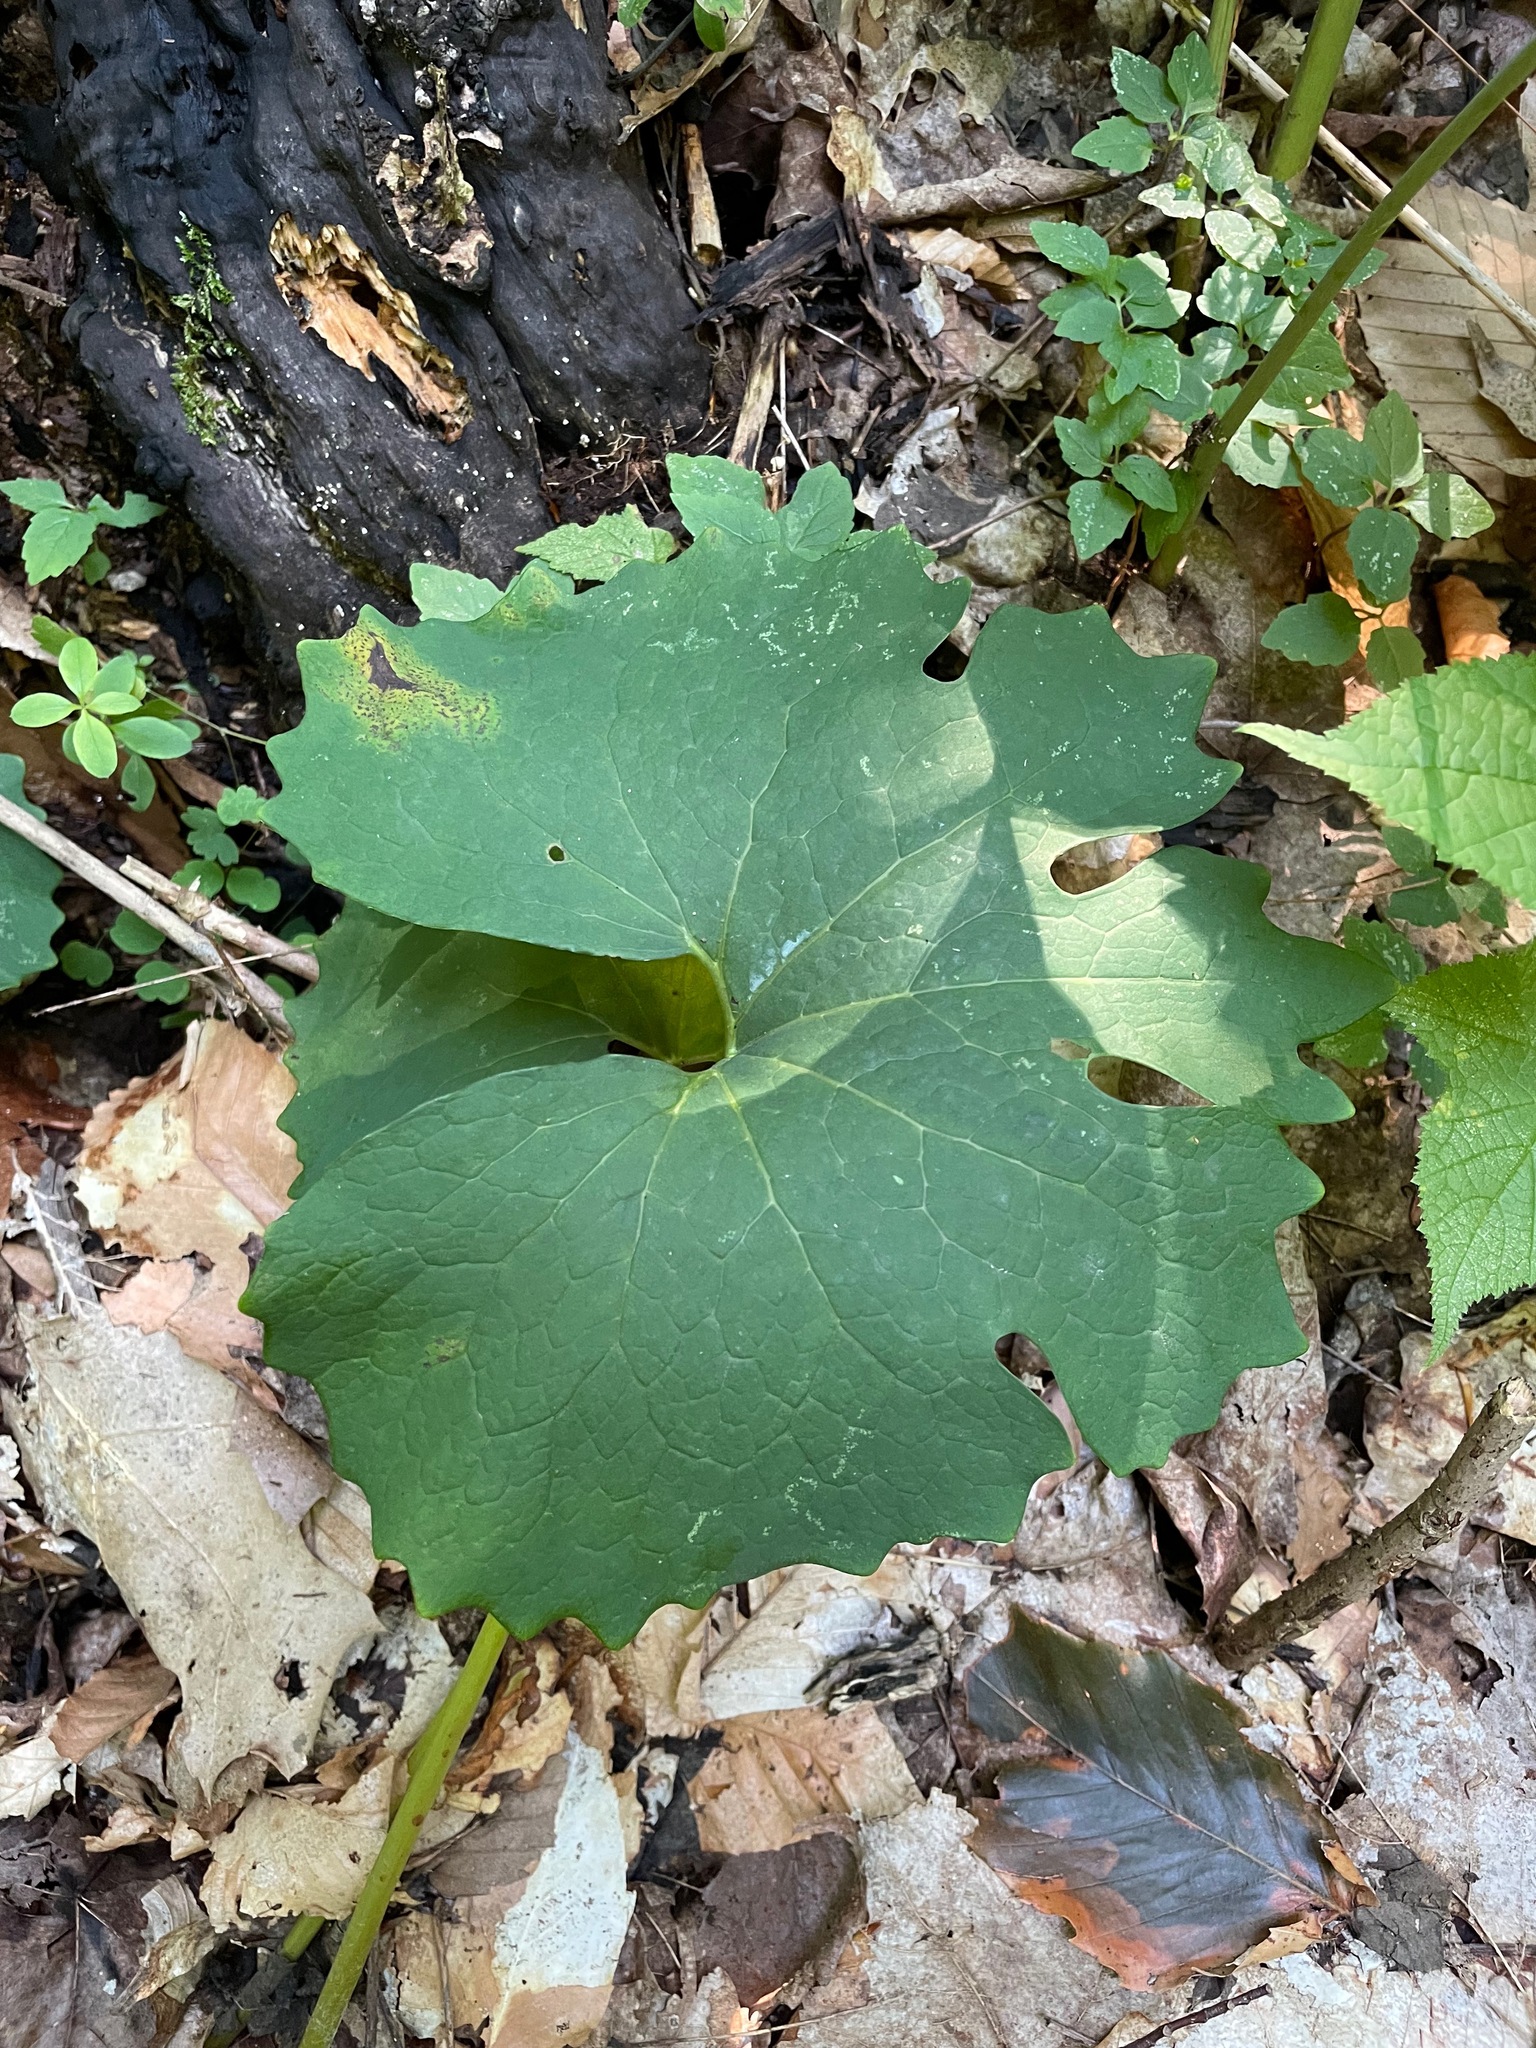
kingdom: Plantae
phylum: Tracheophyta
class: Magnoliopsida
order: Ranunculales
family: Papaveraceae
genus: Sanguinaria
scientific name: Sanguinaria canadensis
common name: Bloodroot
